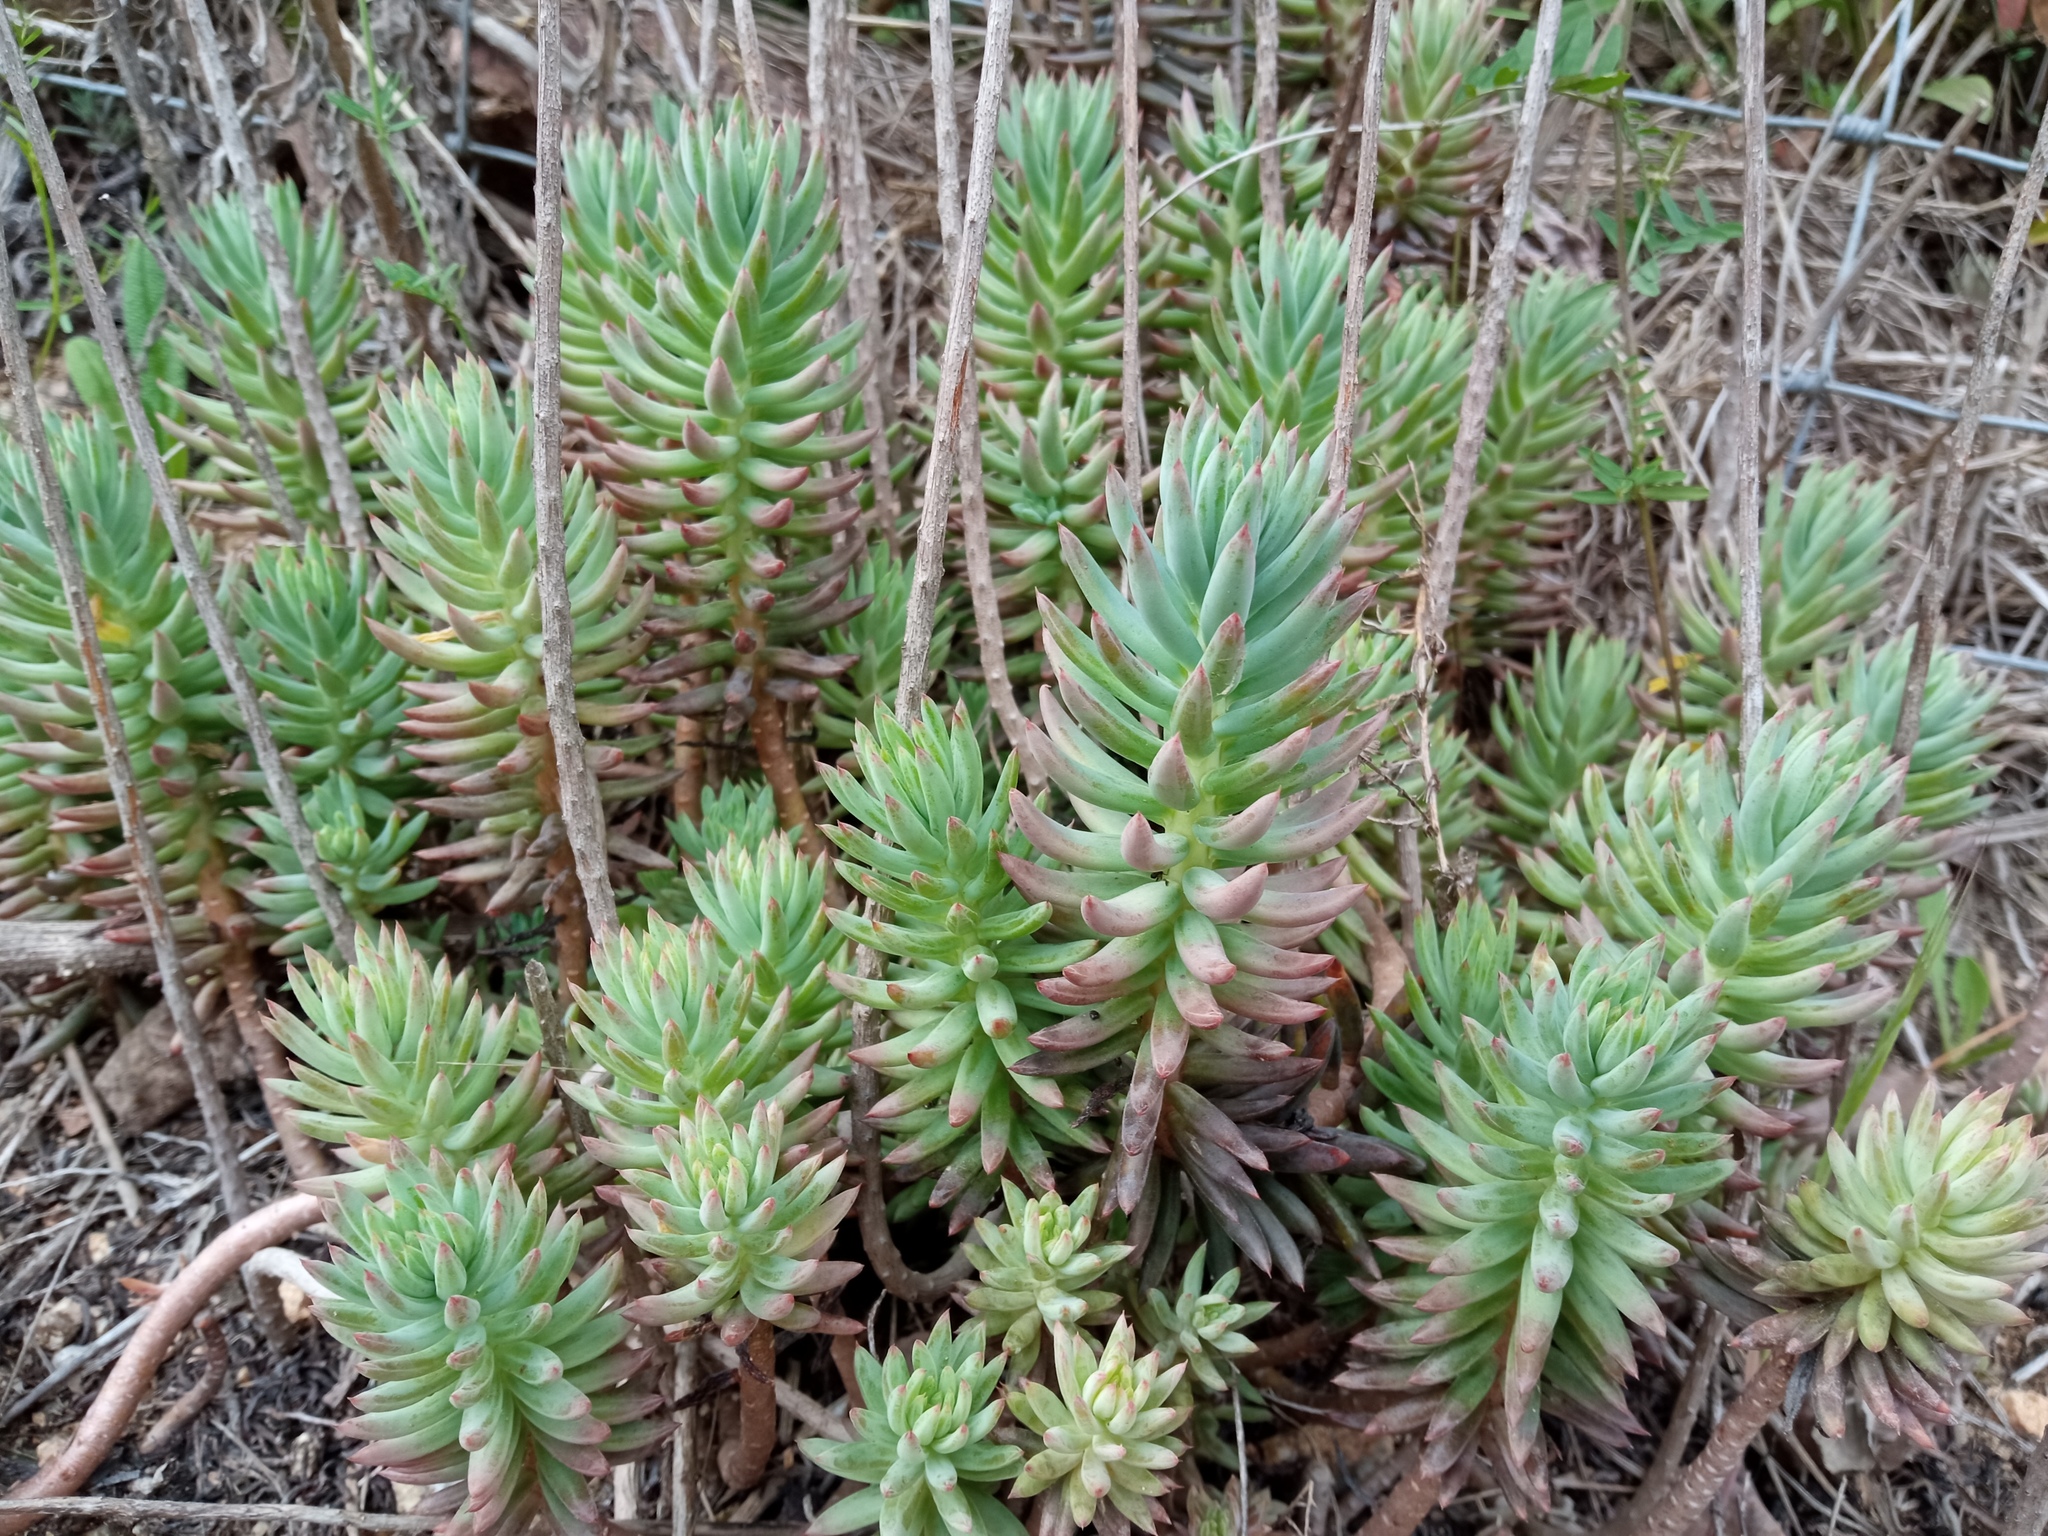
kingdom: Plantae
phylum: Tracheophyta
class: Magnoliopsida
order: Saxifragales
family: Crassulaceae
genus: Petrosedum
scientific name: Petrosedum sediforme
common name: Pale stonecrop
